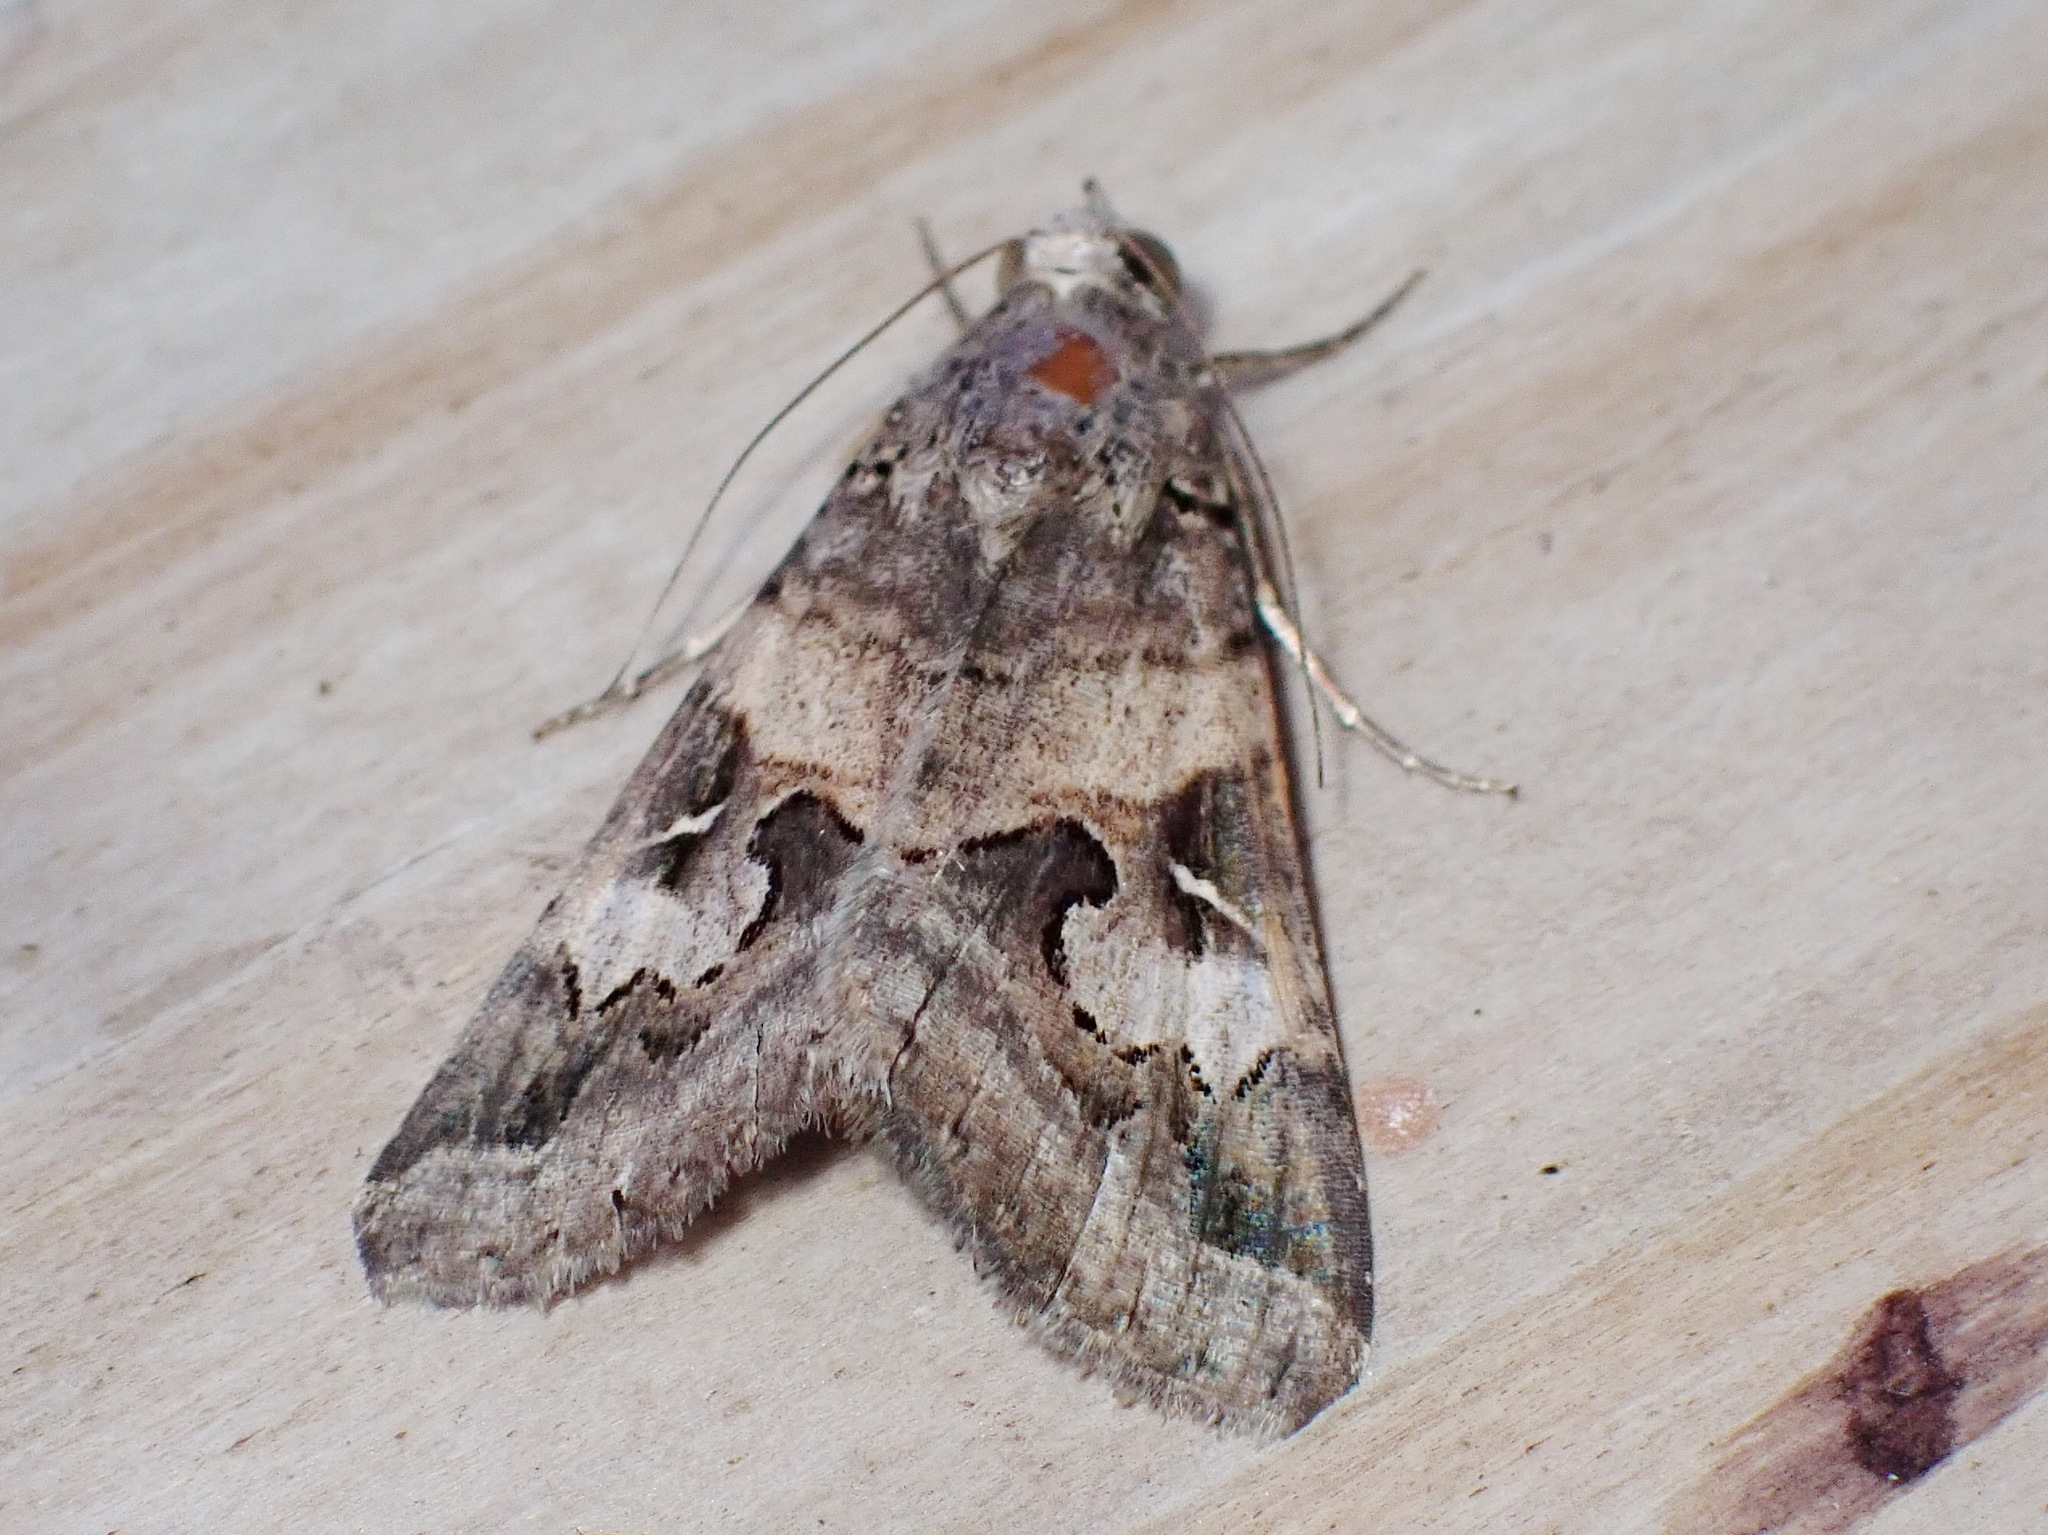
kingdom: Animalia
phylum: Arthropoda
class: Insecta
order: Lepidoptera
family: Erebidae
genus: Melipotis
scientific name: Melipotis indomita
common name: Moth
